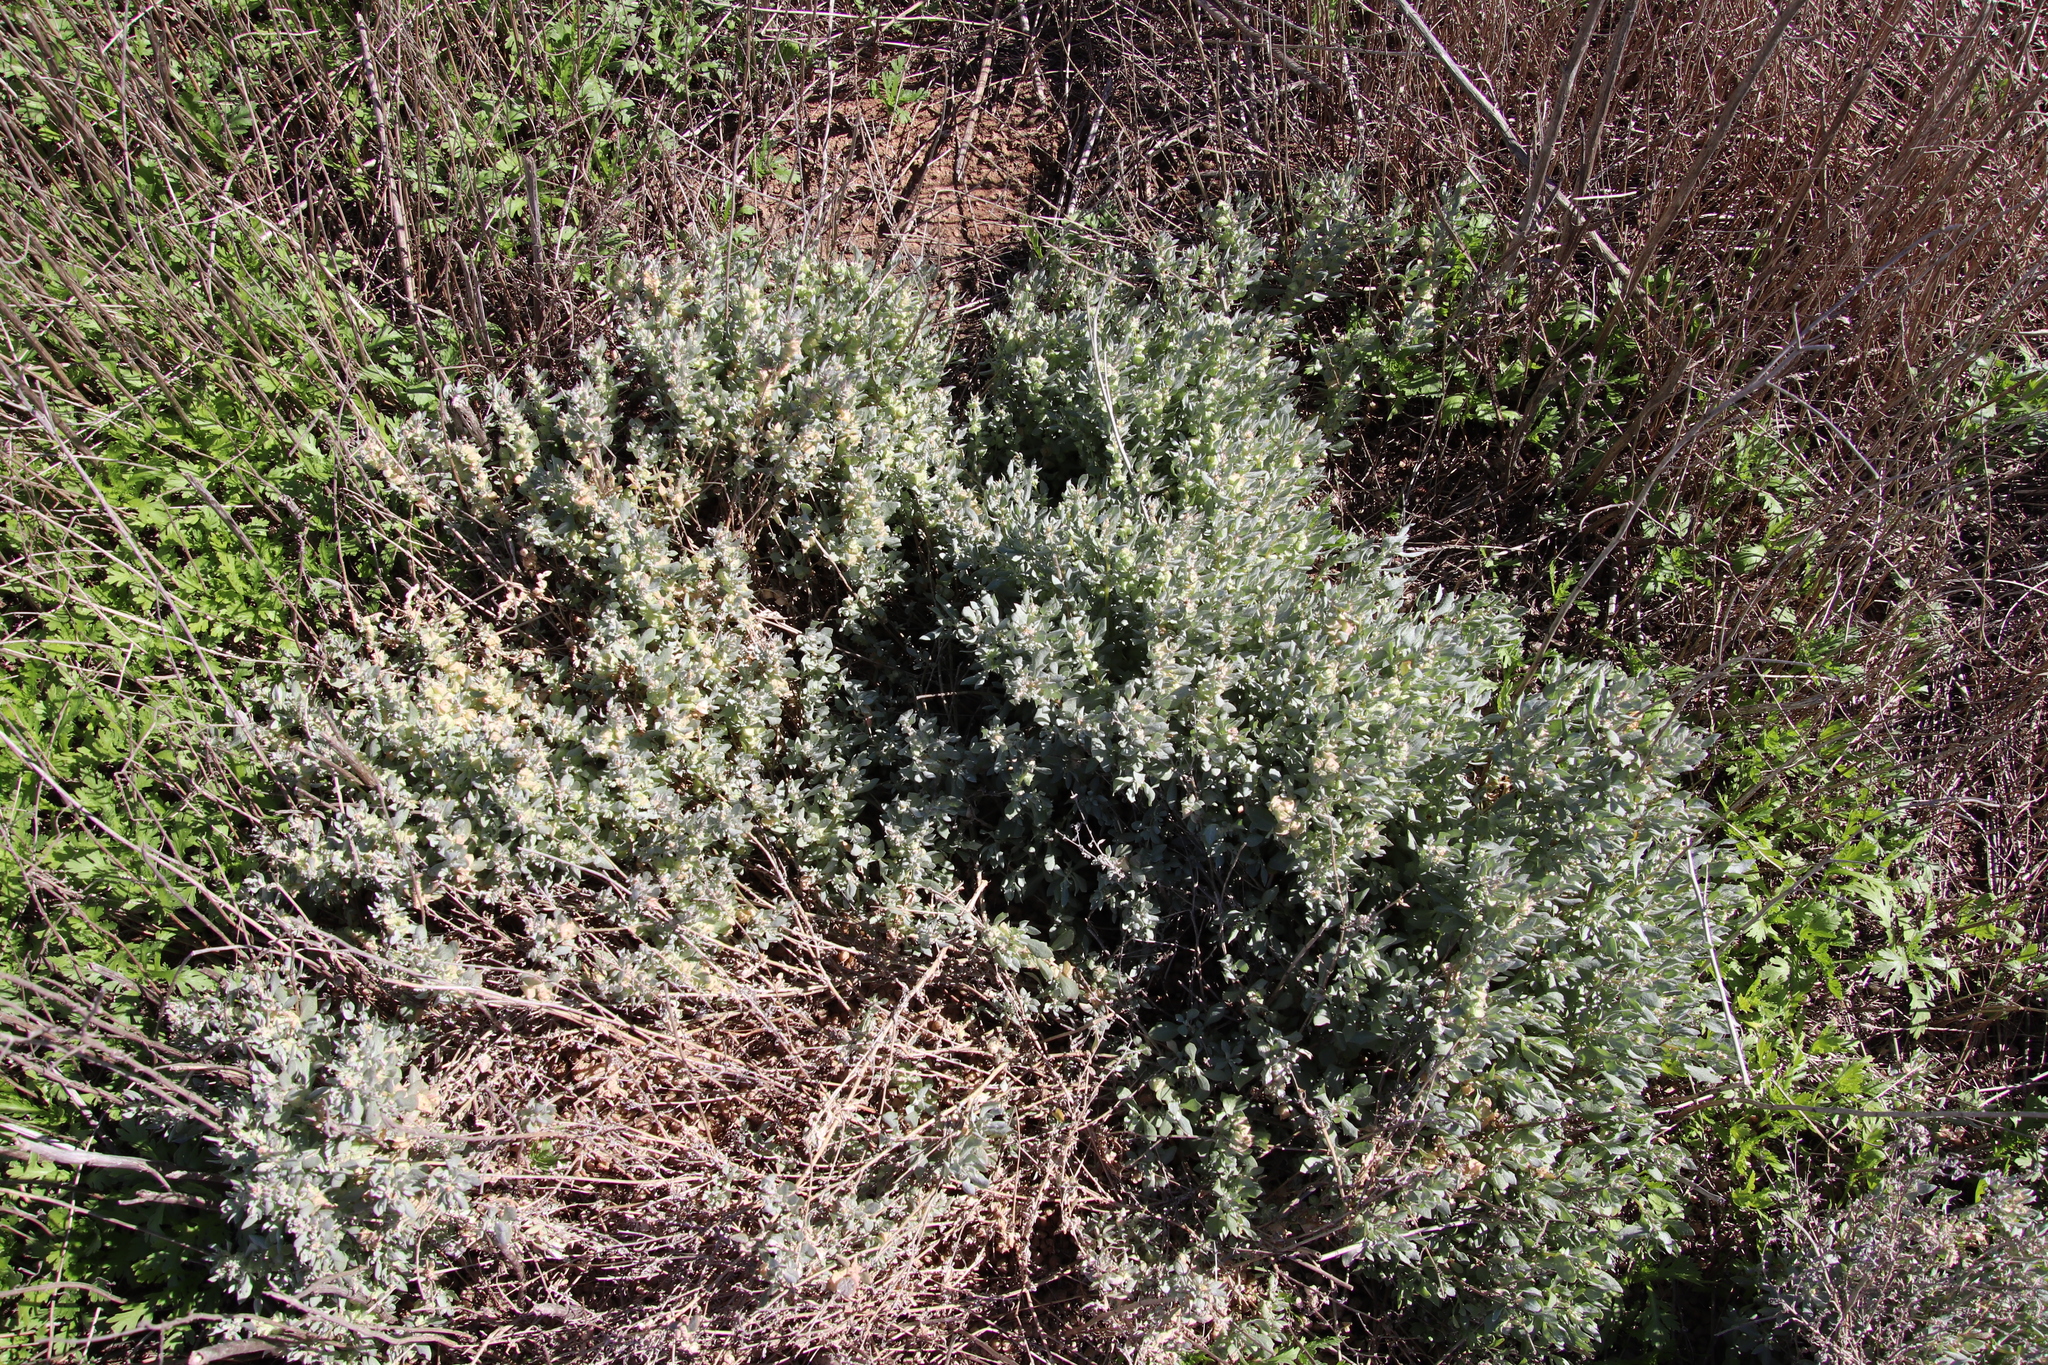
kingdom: Plantae
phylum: Tracheophyta
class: Magnoliopsida
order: Caryophyllales
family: Amaranthaceae
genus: Atriplex
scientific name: Atriplex lindleyi
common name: Lindley's saltbush
